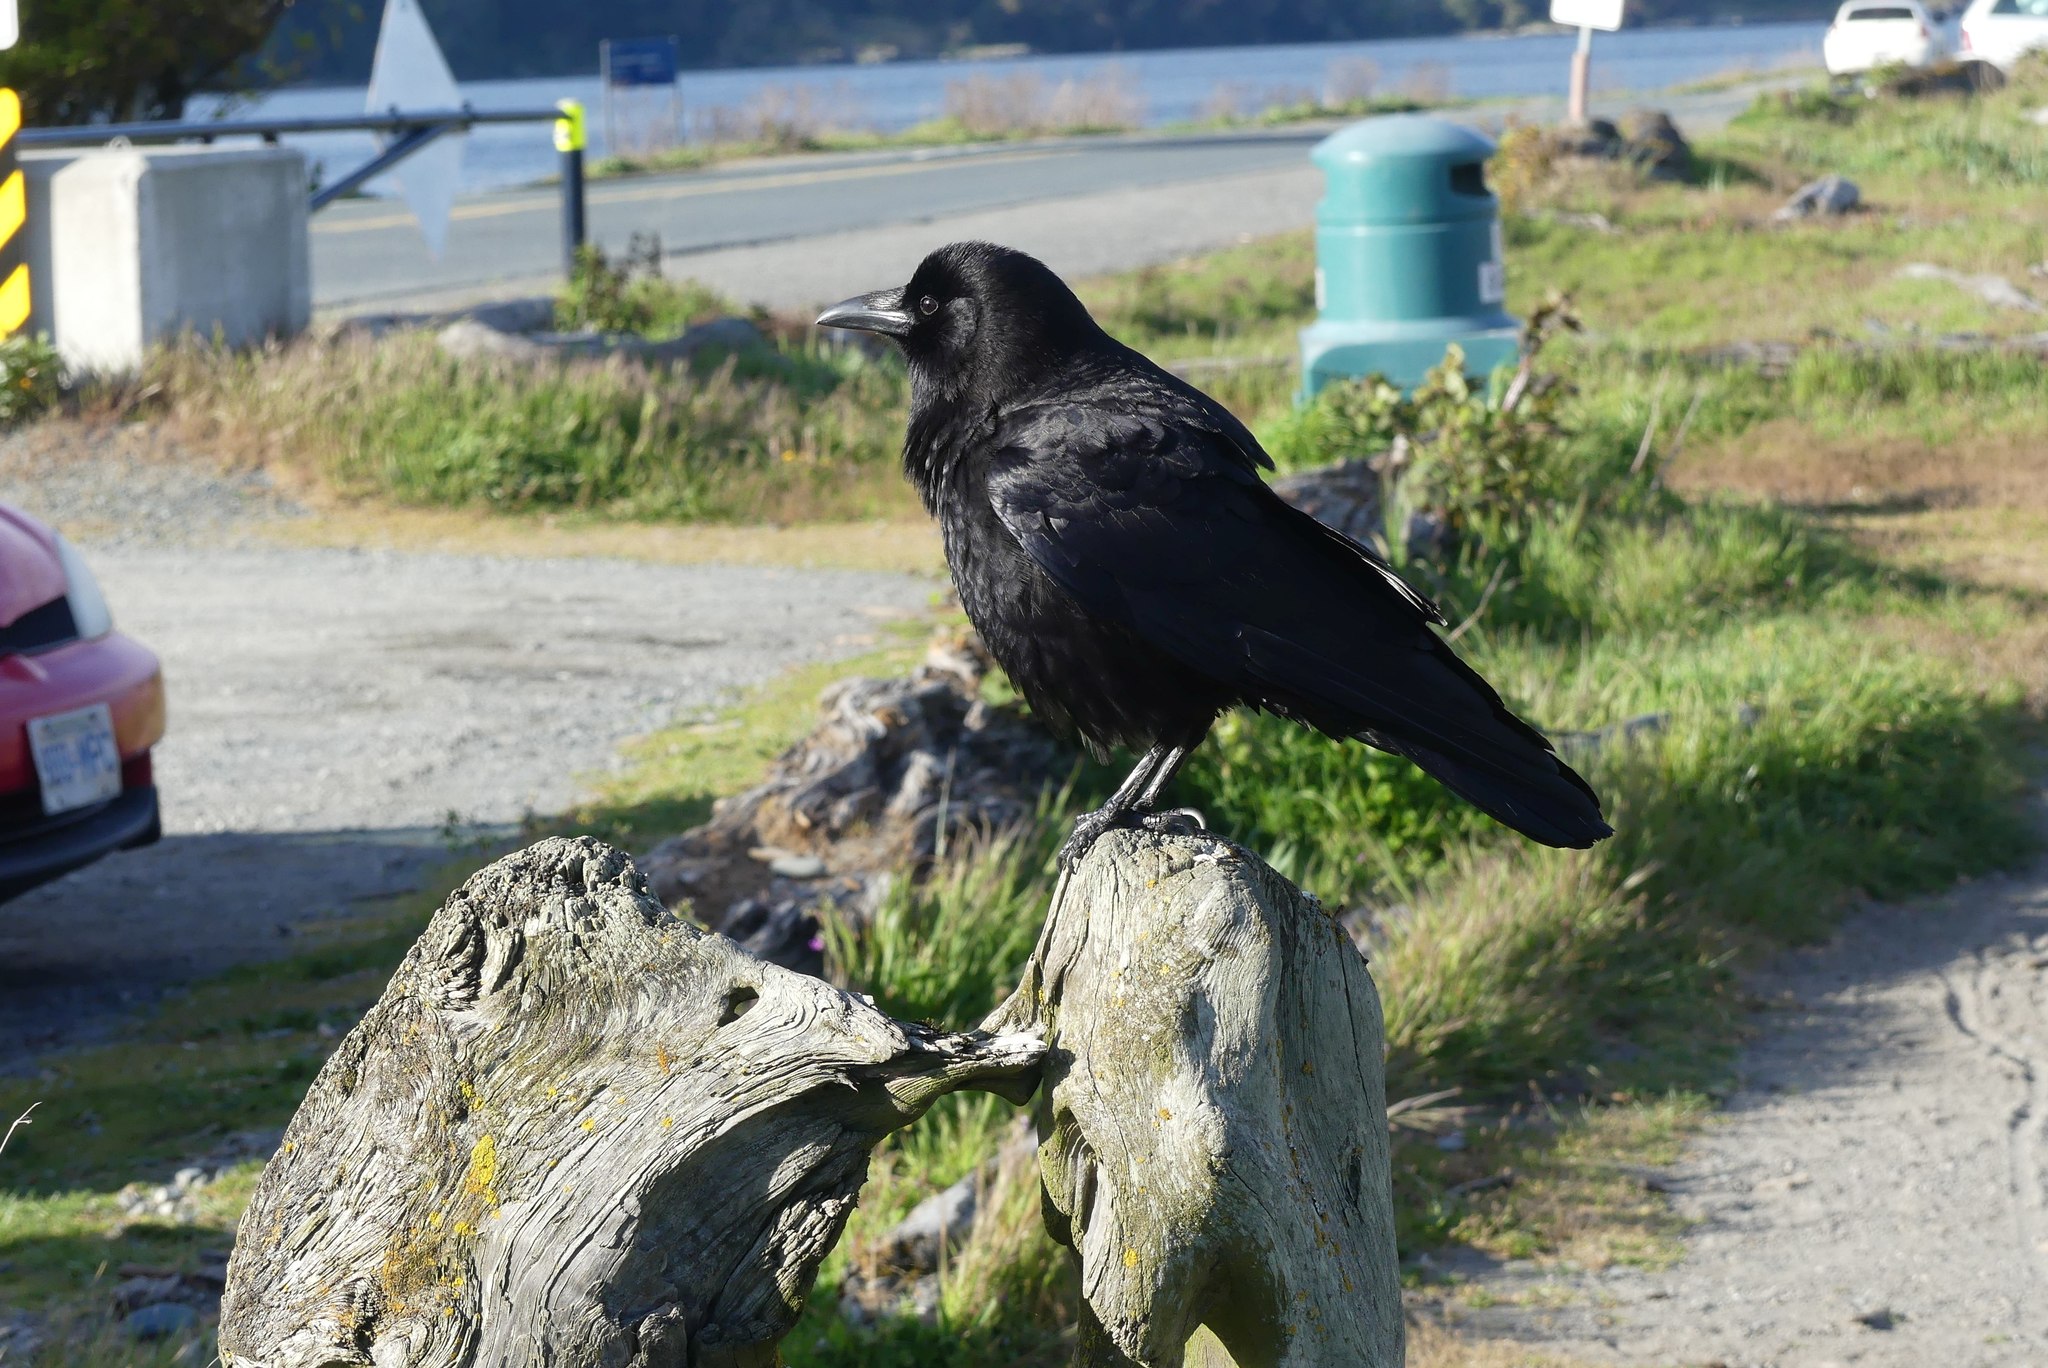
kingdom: Animalia
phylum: Chordata
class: Aves
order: Passeriformes
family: Corvidae
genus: Corvus
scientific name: Corvus corax
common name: Common raven
